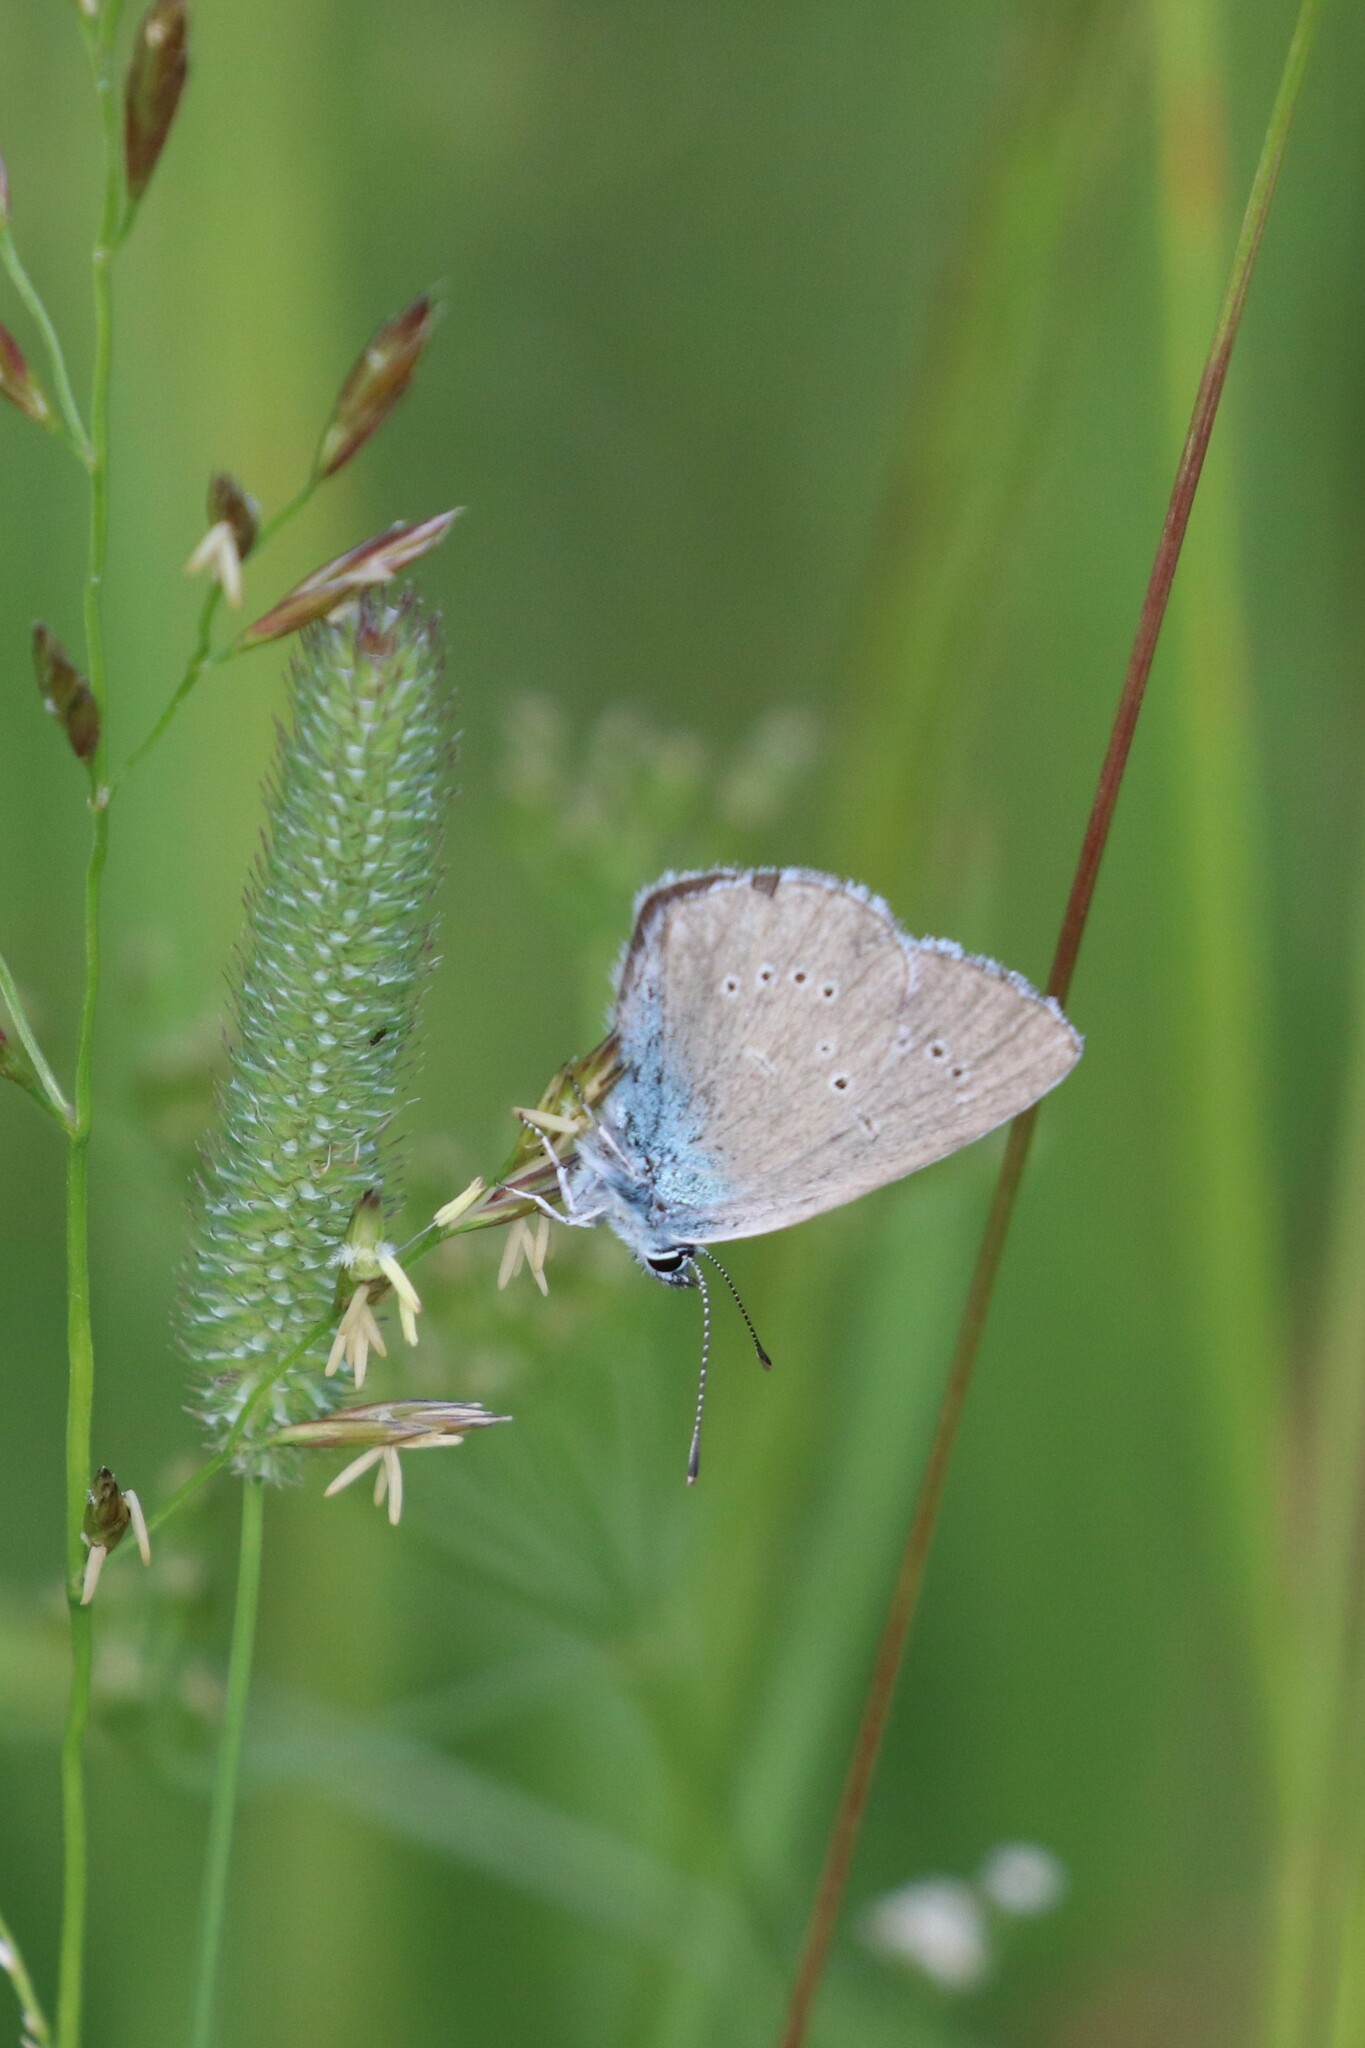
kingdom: Animalia
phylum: Arthropoda
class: Insecta
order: Lepidoptera
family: Lycaenidae
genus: Cyaniris
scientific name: Cyaniris semiargus
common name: Mazarine blue
